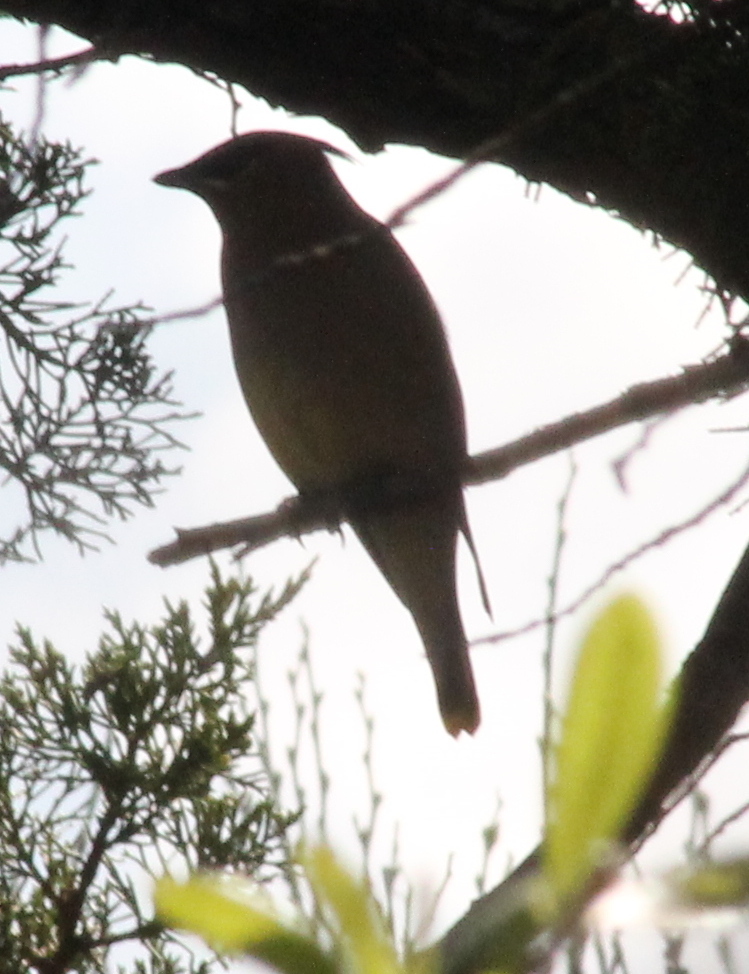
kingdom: Animalia
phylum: Chordata
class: Aves
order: Passeriformes
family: Bombycillidae
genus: Bombycilla
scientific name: Bombycilla cedrorum
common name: Cedar waxwing
